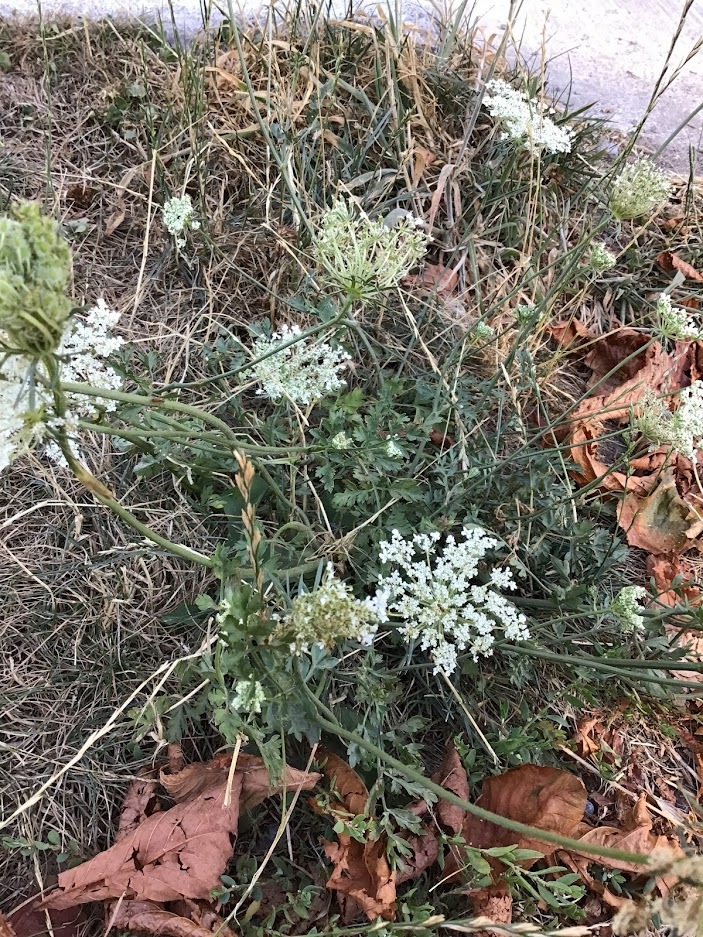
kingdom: Plantae
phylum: Tracheophyta
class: Magnoliopsida
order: Apiales
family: Apiaceae
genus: Daucus
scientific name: Daucus carota
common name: Wild carrot
